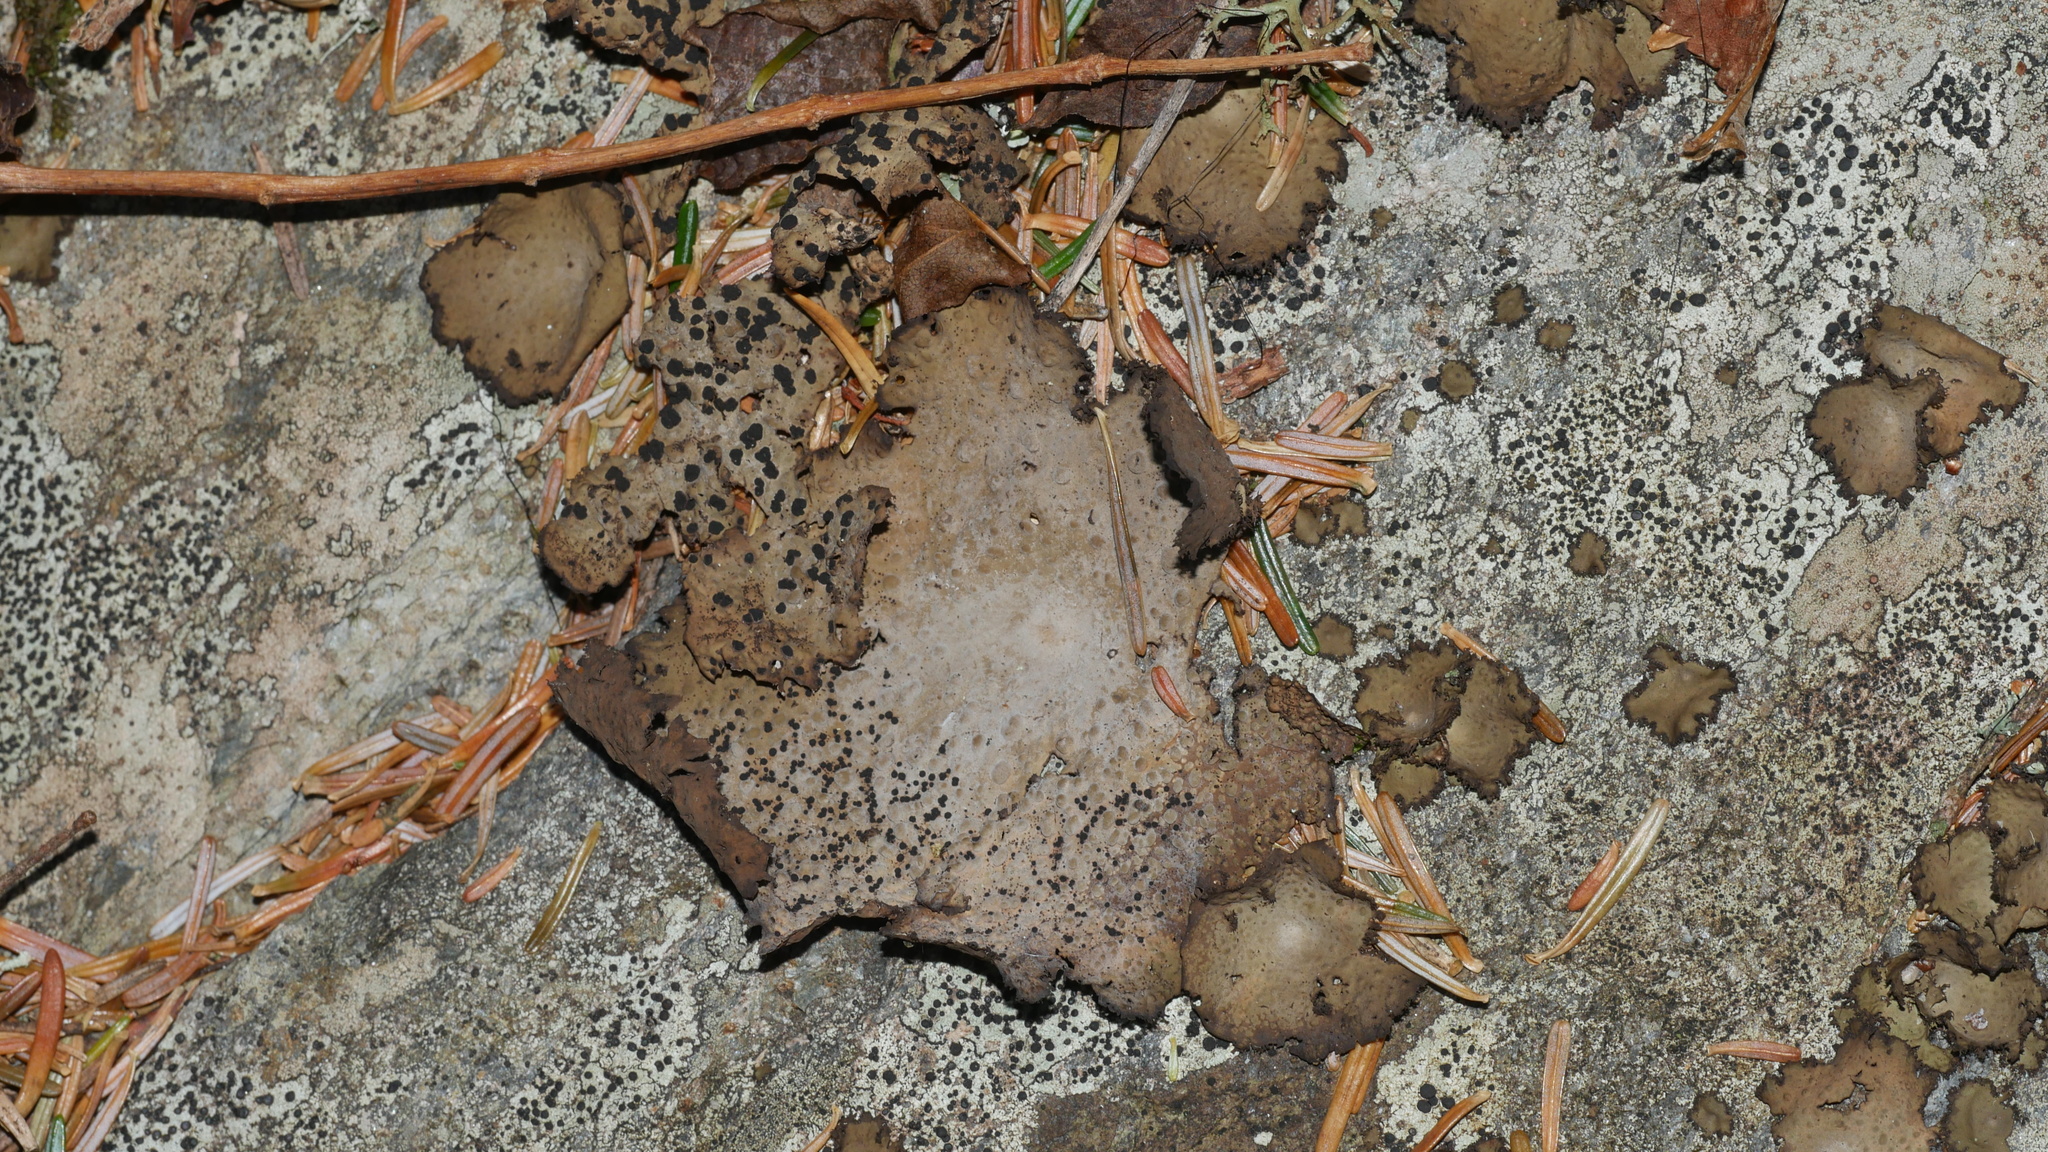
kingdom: Fungi
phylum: Ascomycota
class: Lecanoromycetes
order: Umbilicariales
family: Umbilicariaceae
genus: Lasallia
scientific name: Lasallia pensylvanica
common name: Blackened toadskin lichen
